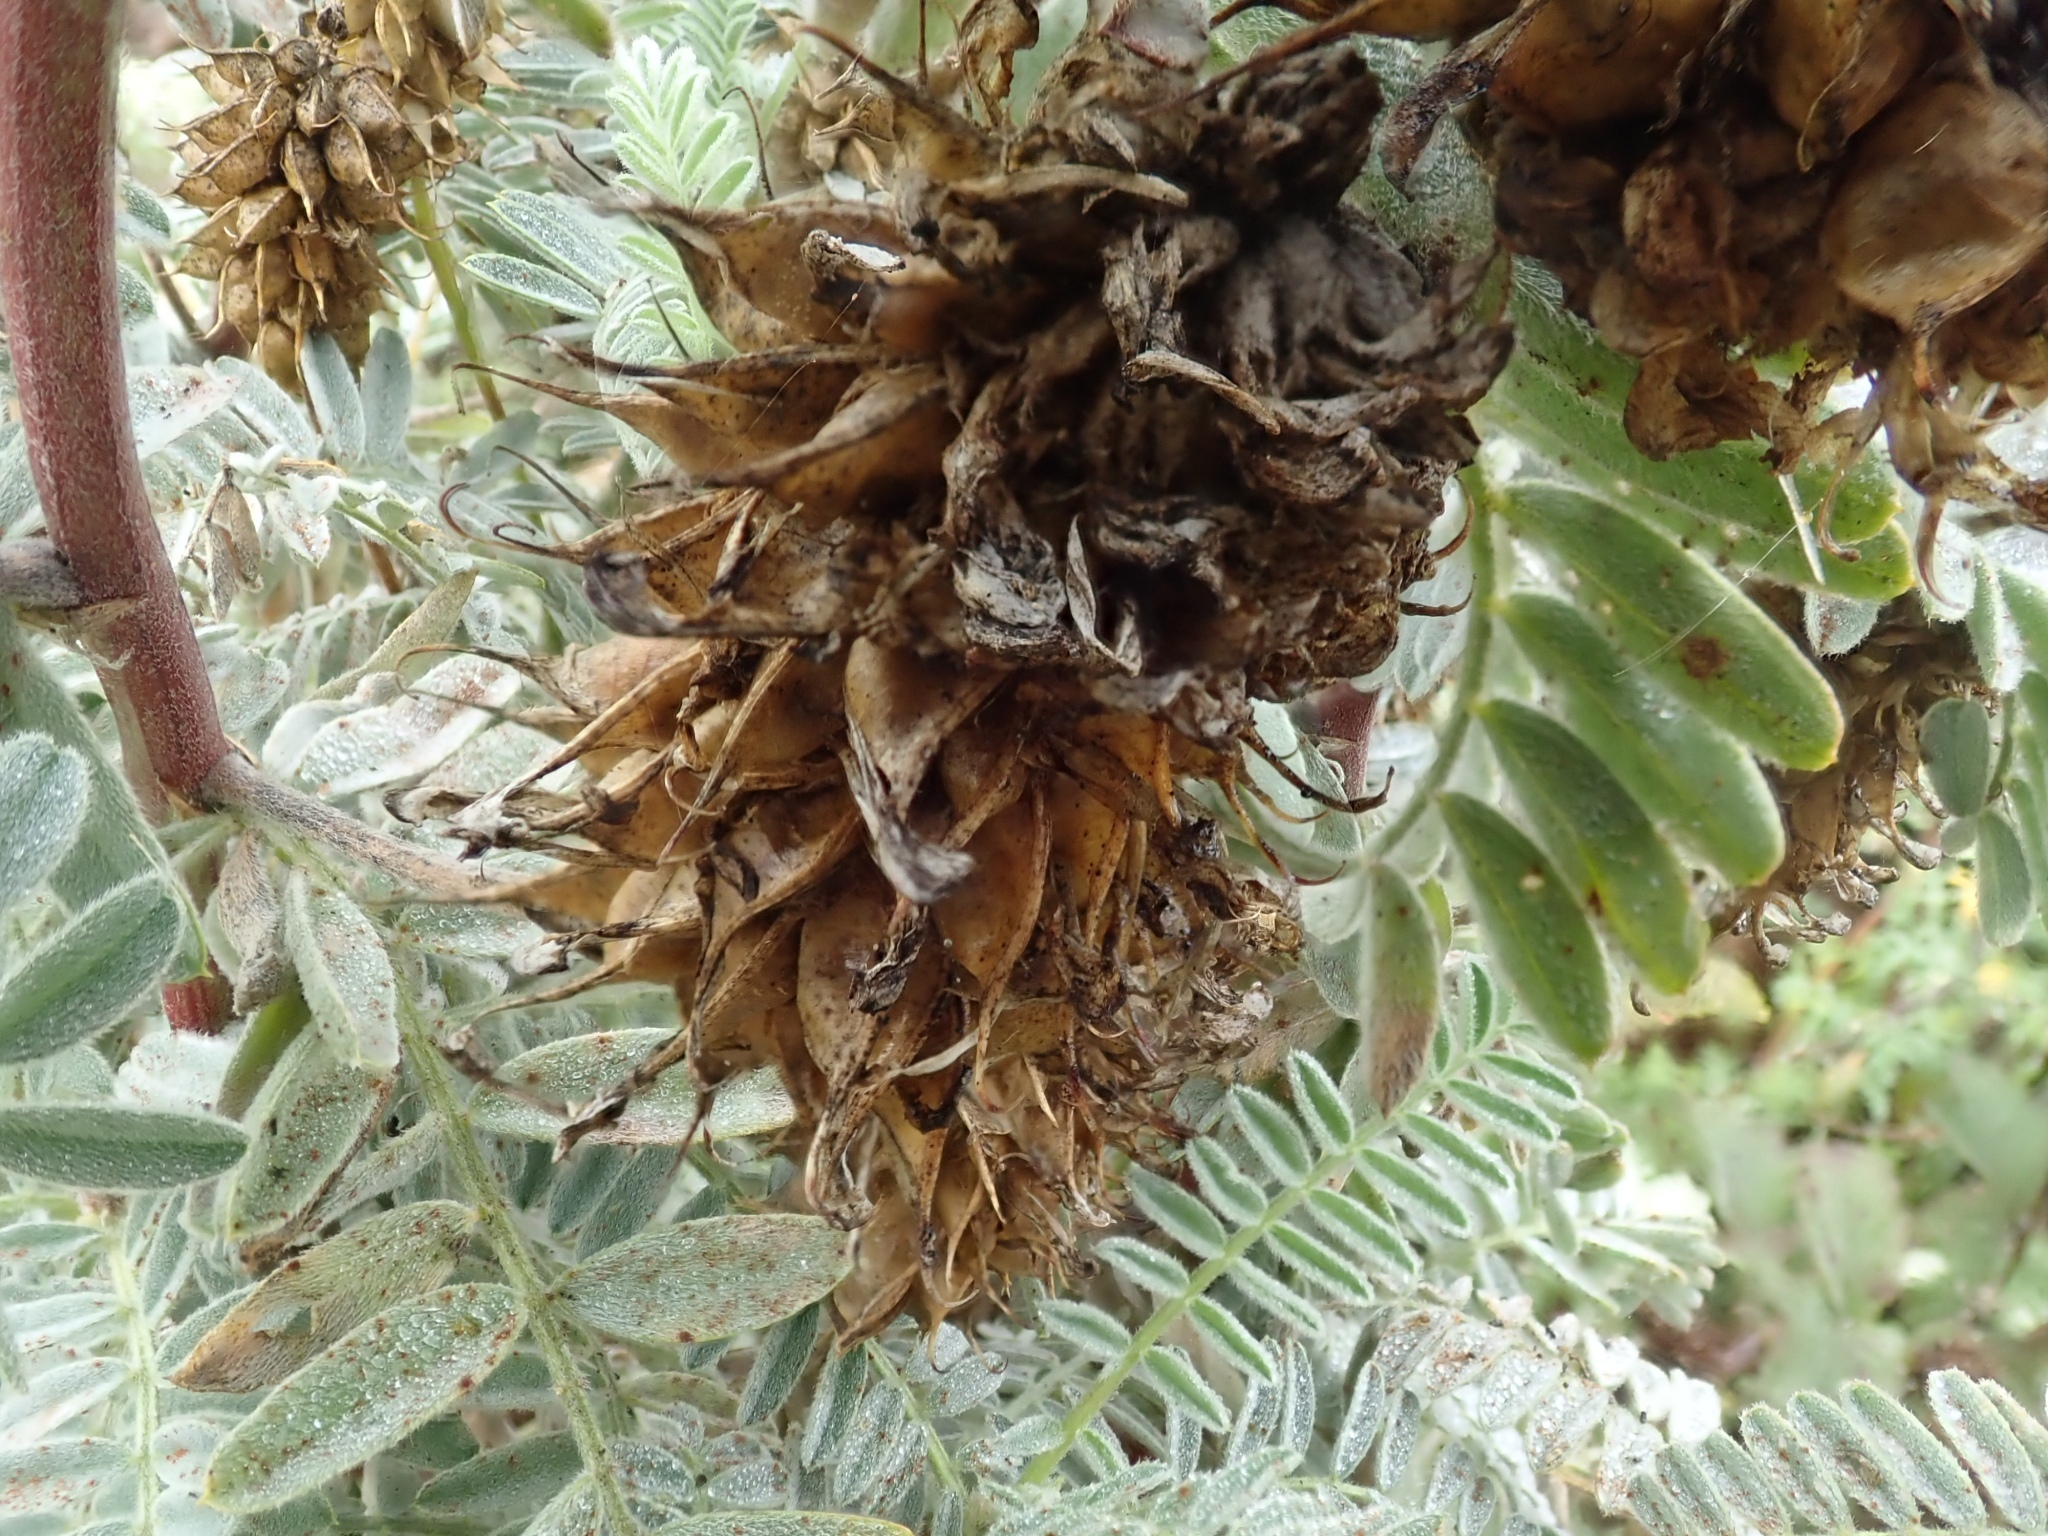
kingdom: Plantae
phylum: Tracheophyta
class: Magnoliopsida
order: Fabales
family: Fabaceae
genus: Astragalus
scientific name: Astragalus pycnostachyus
